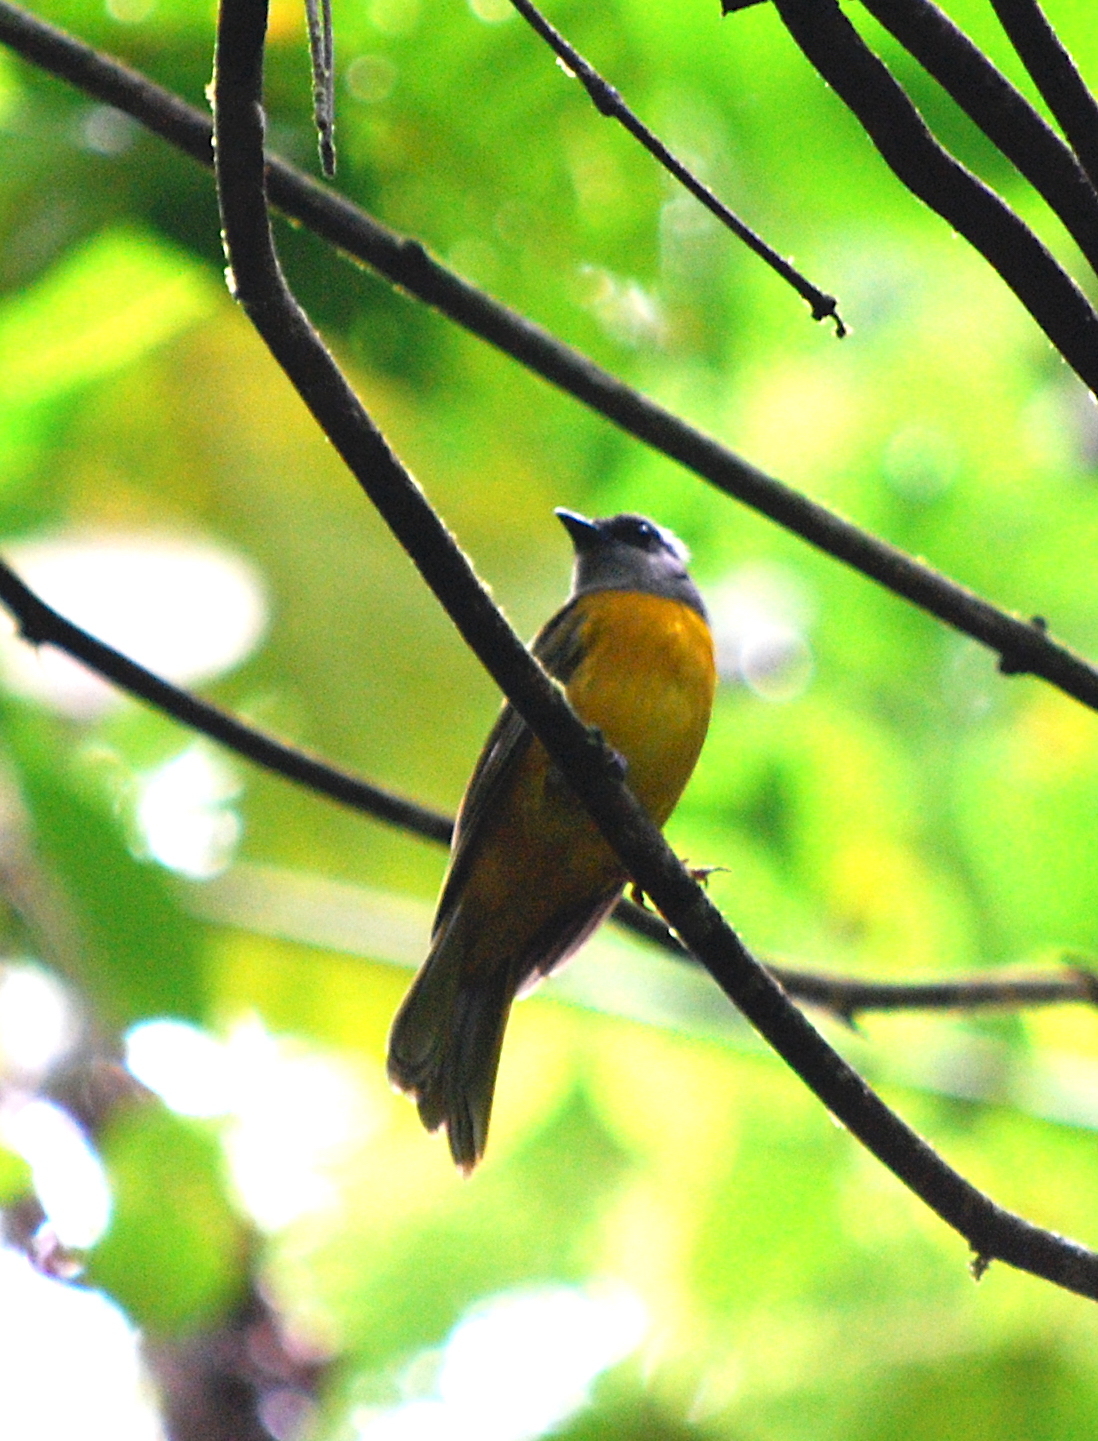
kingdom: Animalia
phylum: Chordata
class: Aves
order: Passeriformes
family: Thraupidae
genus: Eucometis
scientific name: Eucometis penicillata
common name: Grey-headed tanager
